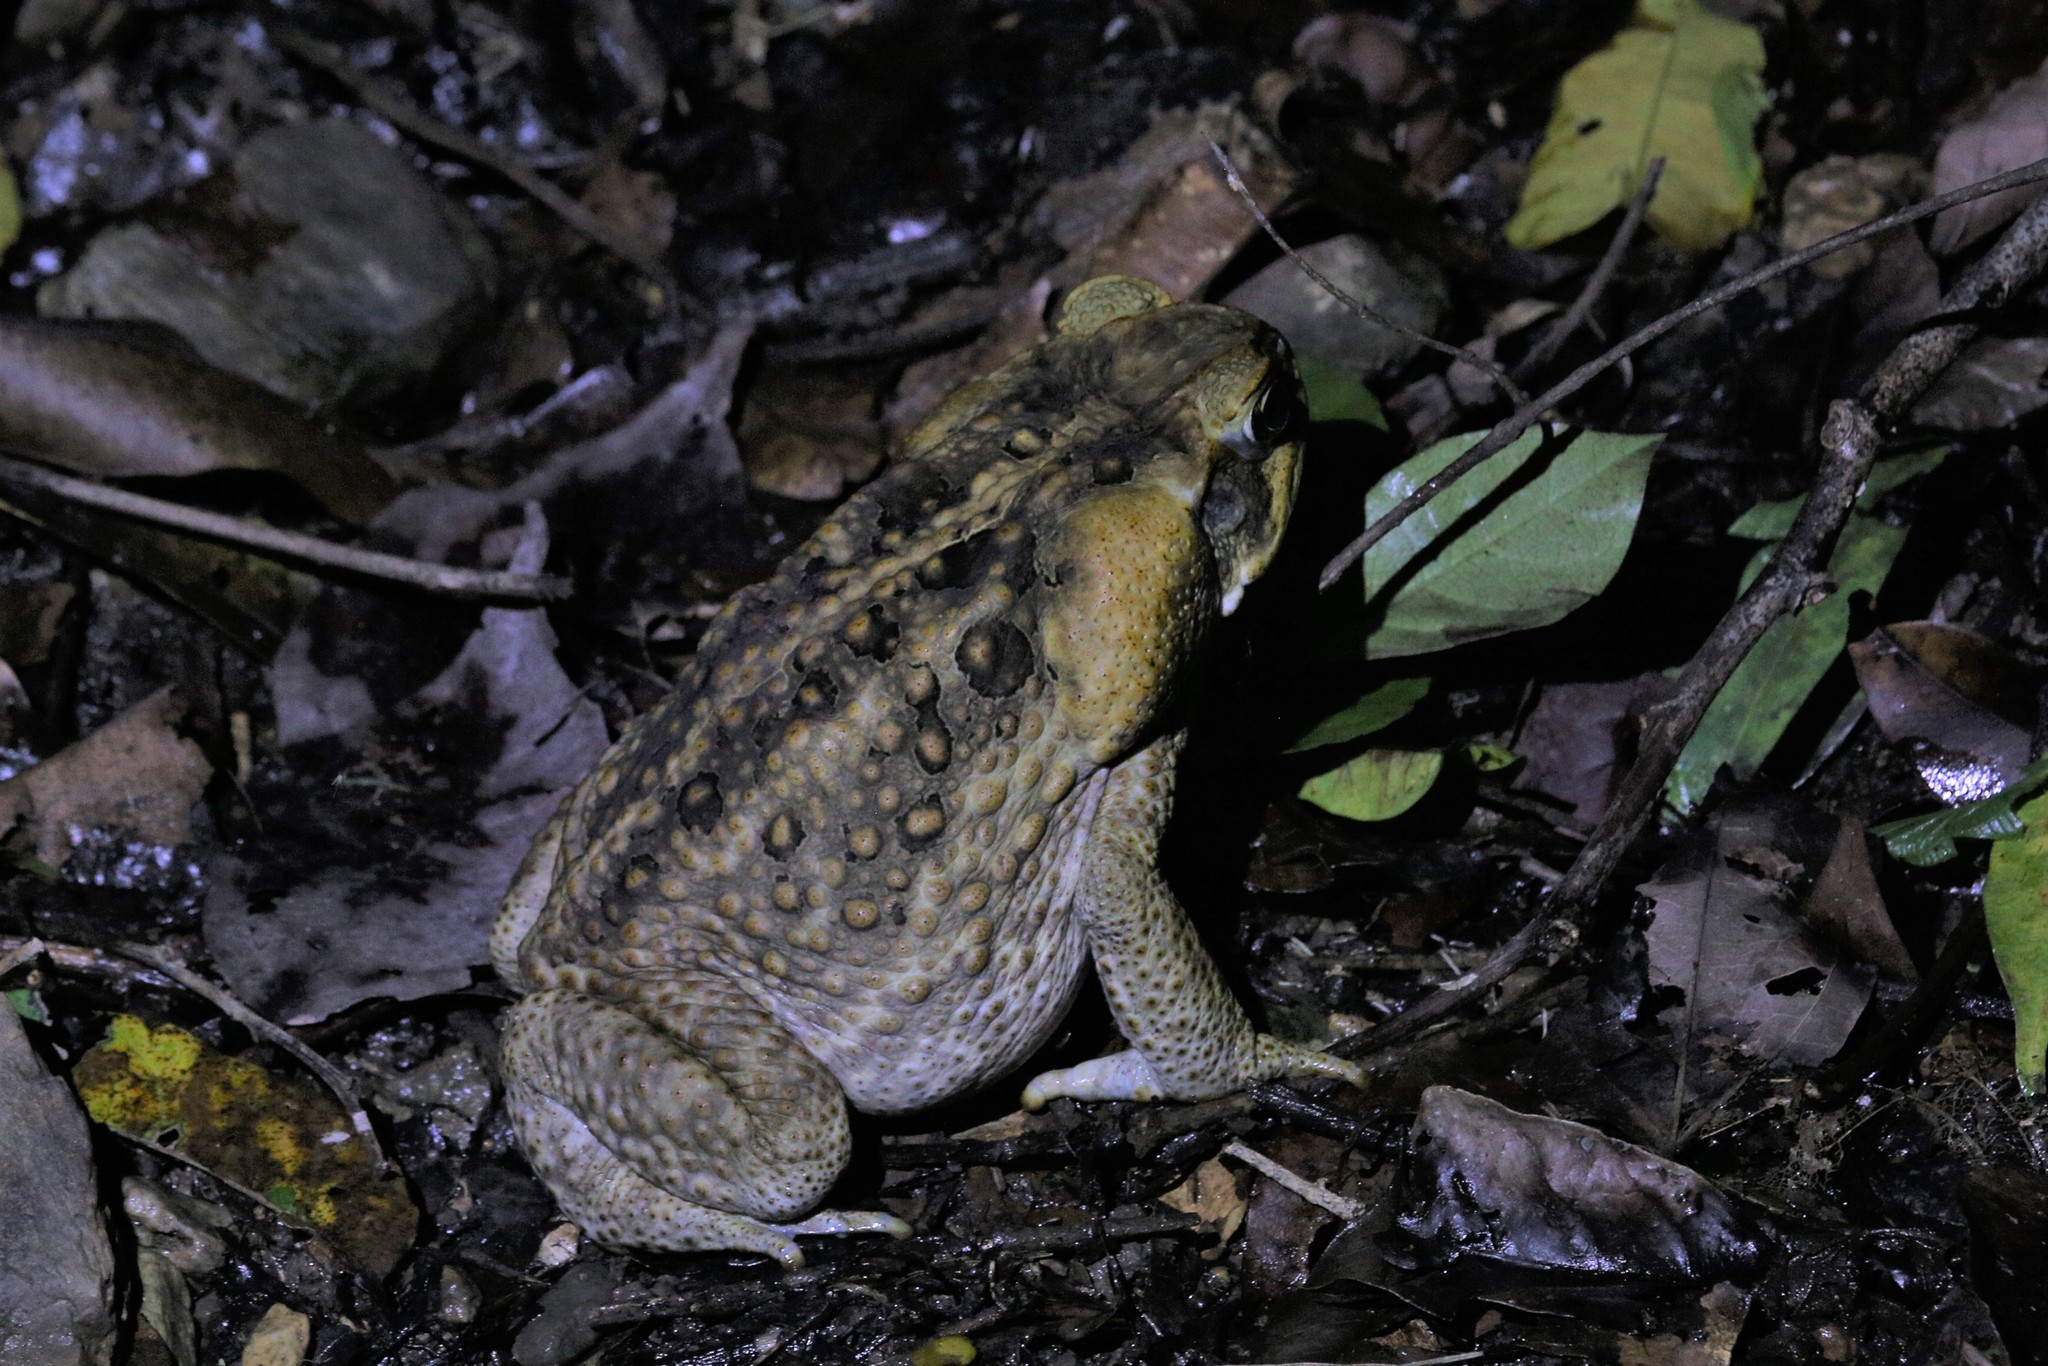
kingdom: Animalia
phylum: Chordata
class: Amphibia
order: Anura
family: Bufonidae
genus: Rhinella
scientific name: Rhinella marina
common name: Cane toad
